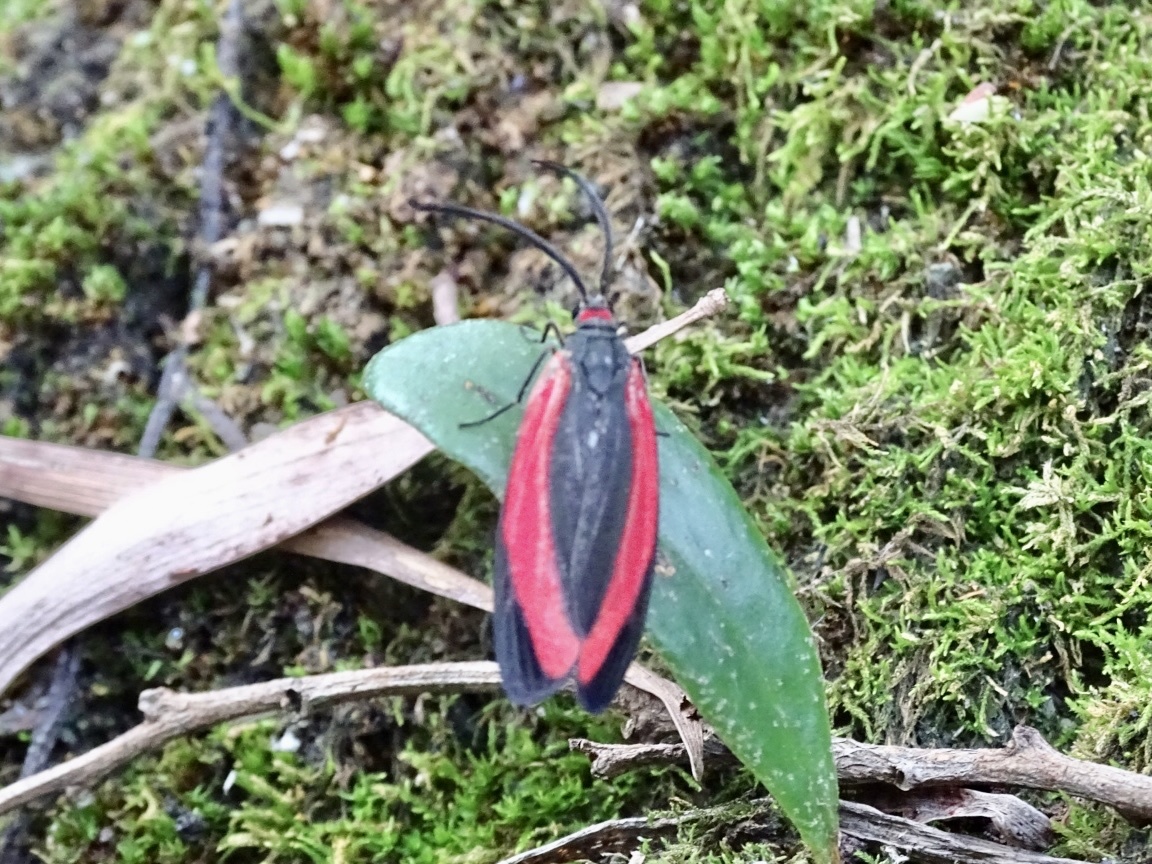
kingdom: Animalia
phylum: Arthropoda
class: Insecta
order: Lepidoptera
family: Zygaenidae
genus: Retina
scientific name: Retina rubrivitta
